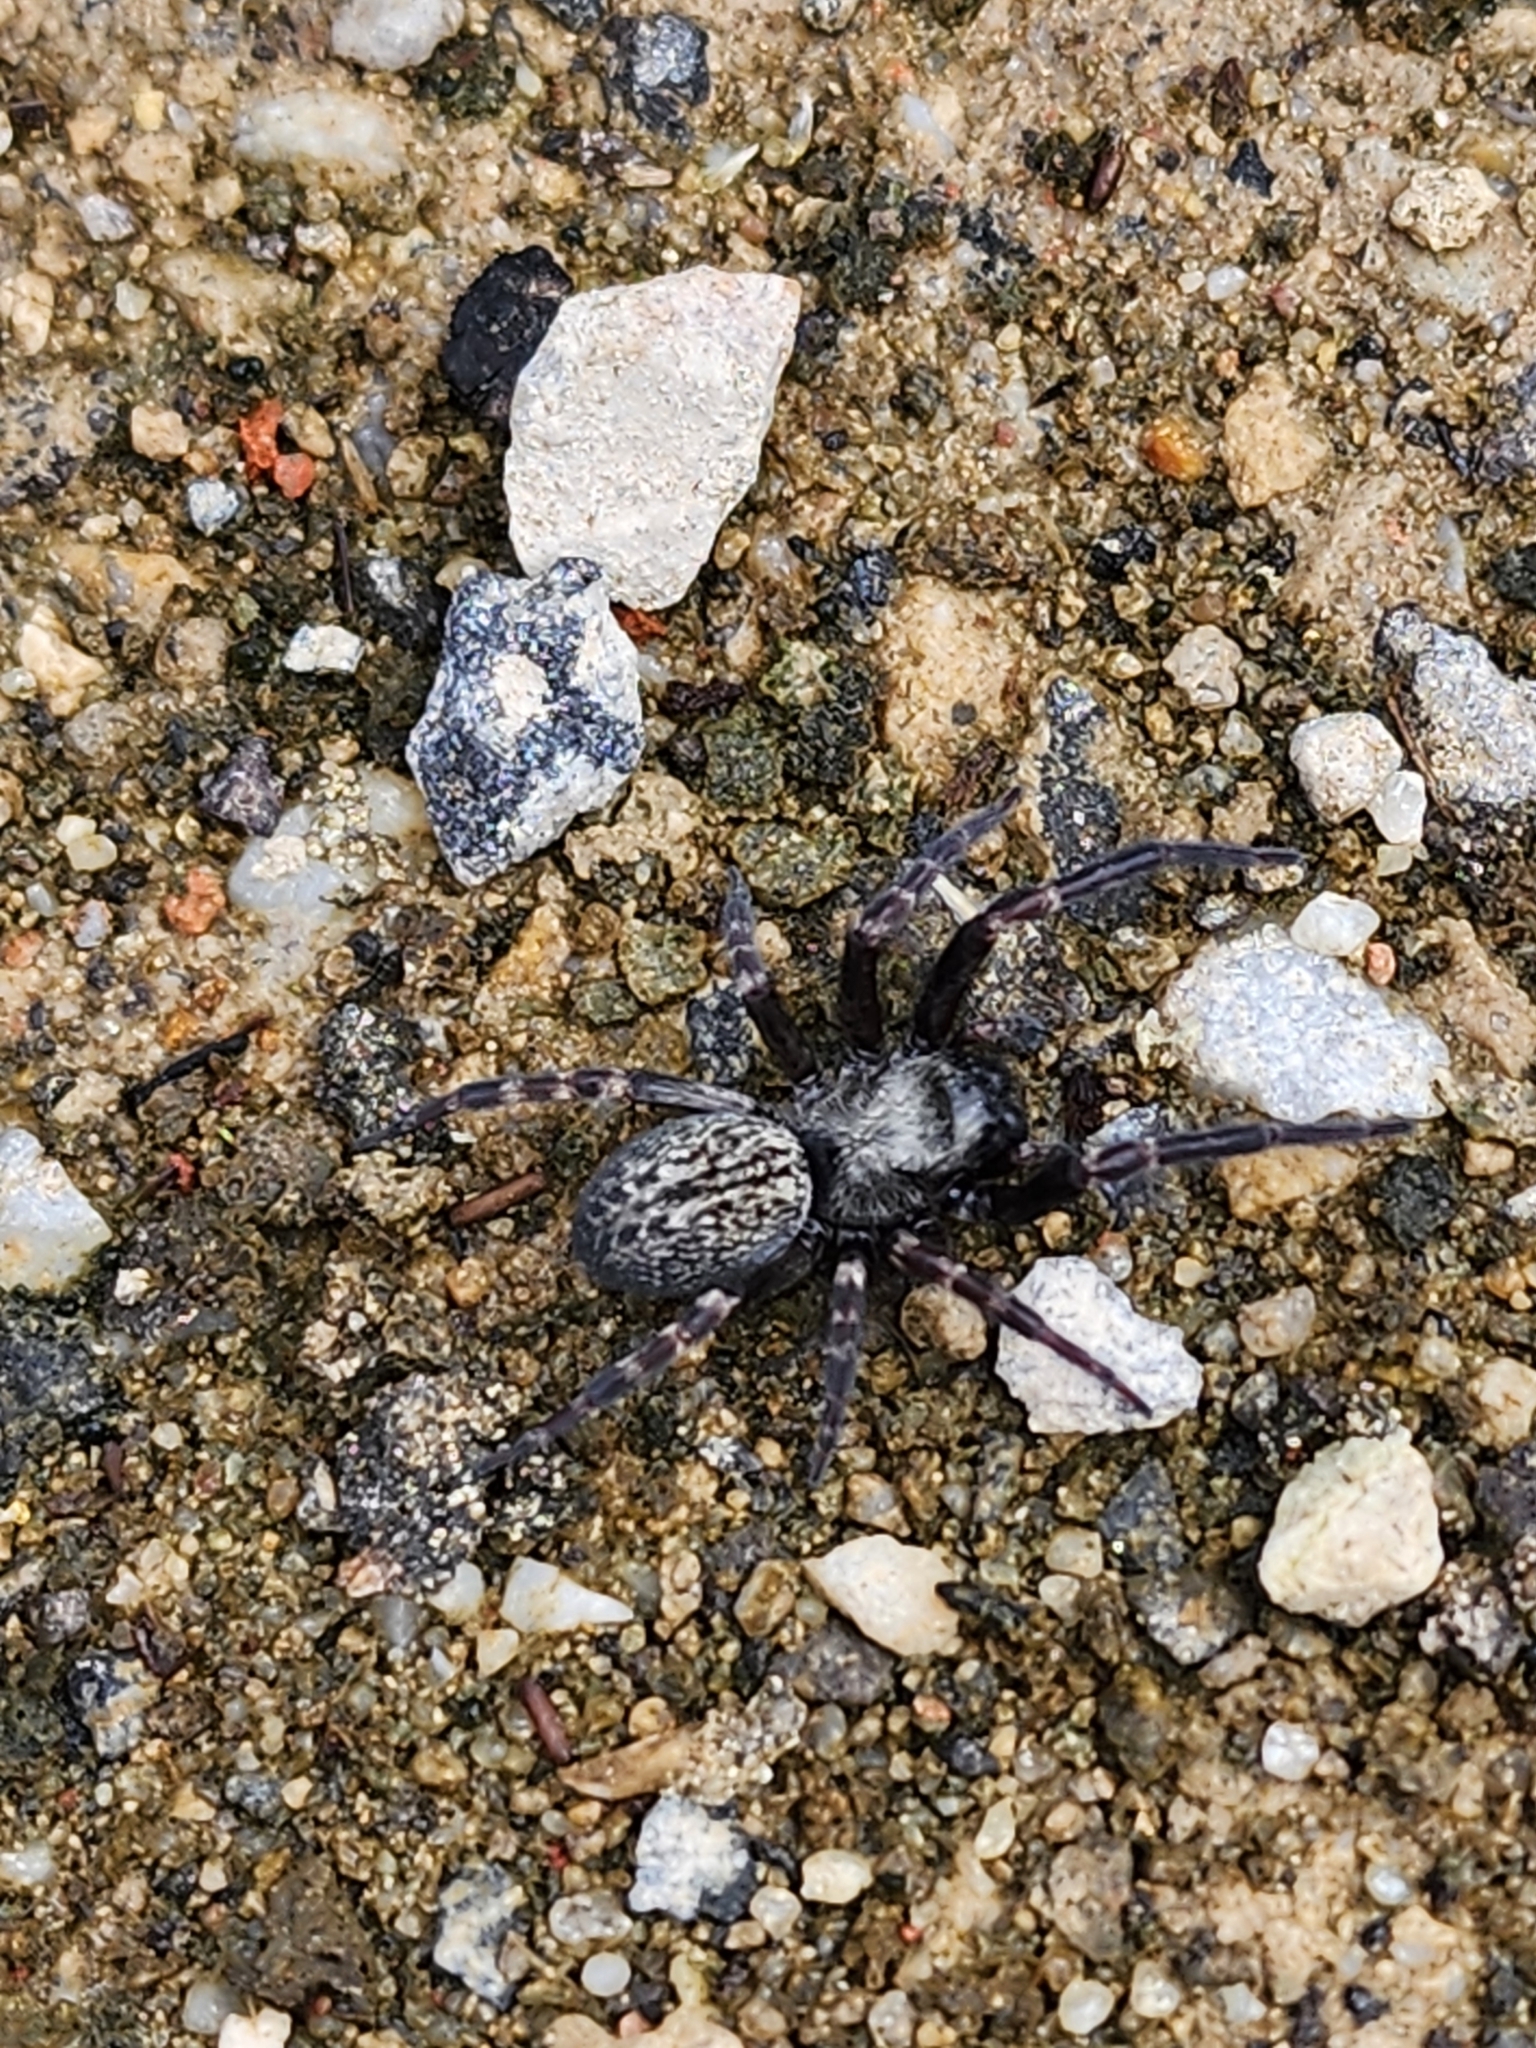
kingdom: Animalia
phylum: Arthropoda
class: Arachnida
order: Araneae
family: Desidae
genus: Badumna
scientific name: Badumna insignis
